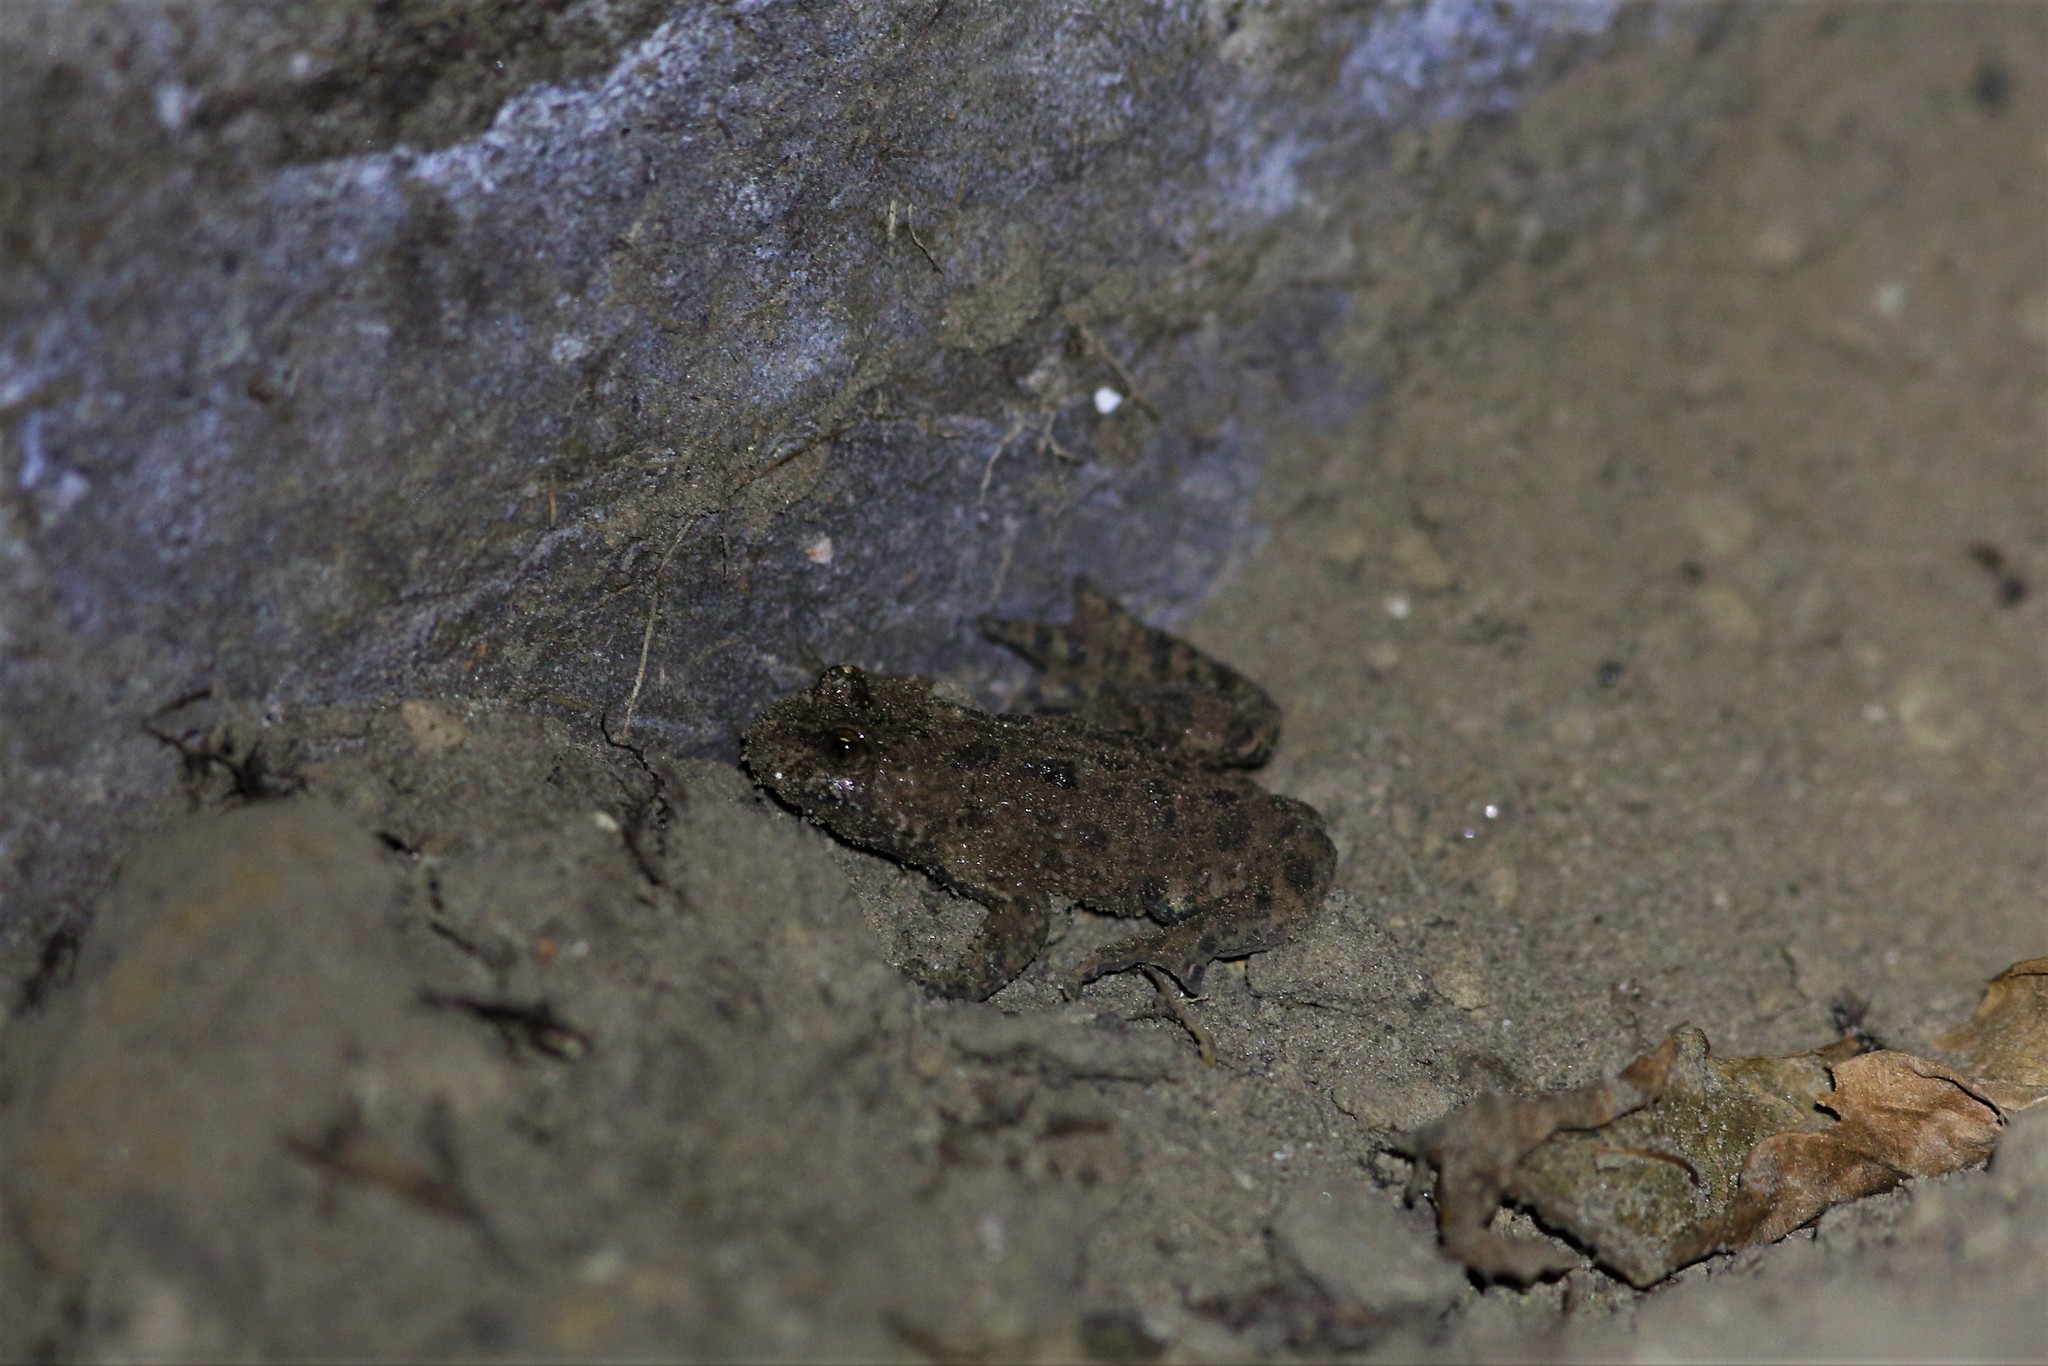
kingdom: Animalia
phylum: Chordata
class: Amphibia
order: Anura
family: Bombinatoridae
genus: Bombina
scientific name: Bombina bombina
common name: Fire-bellied toad
